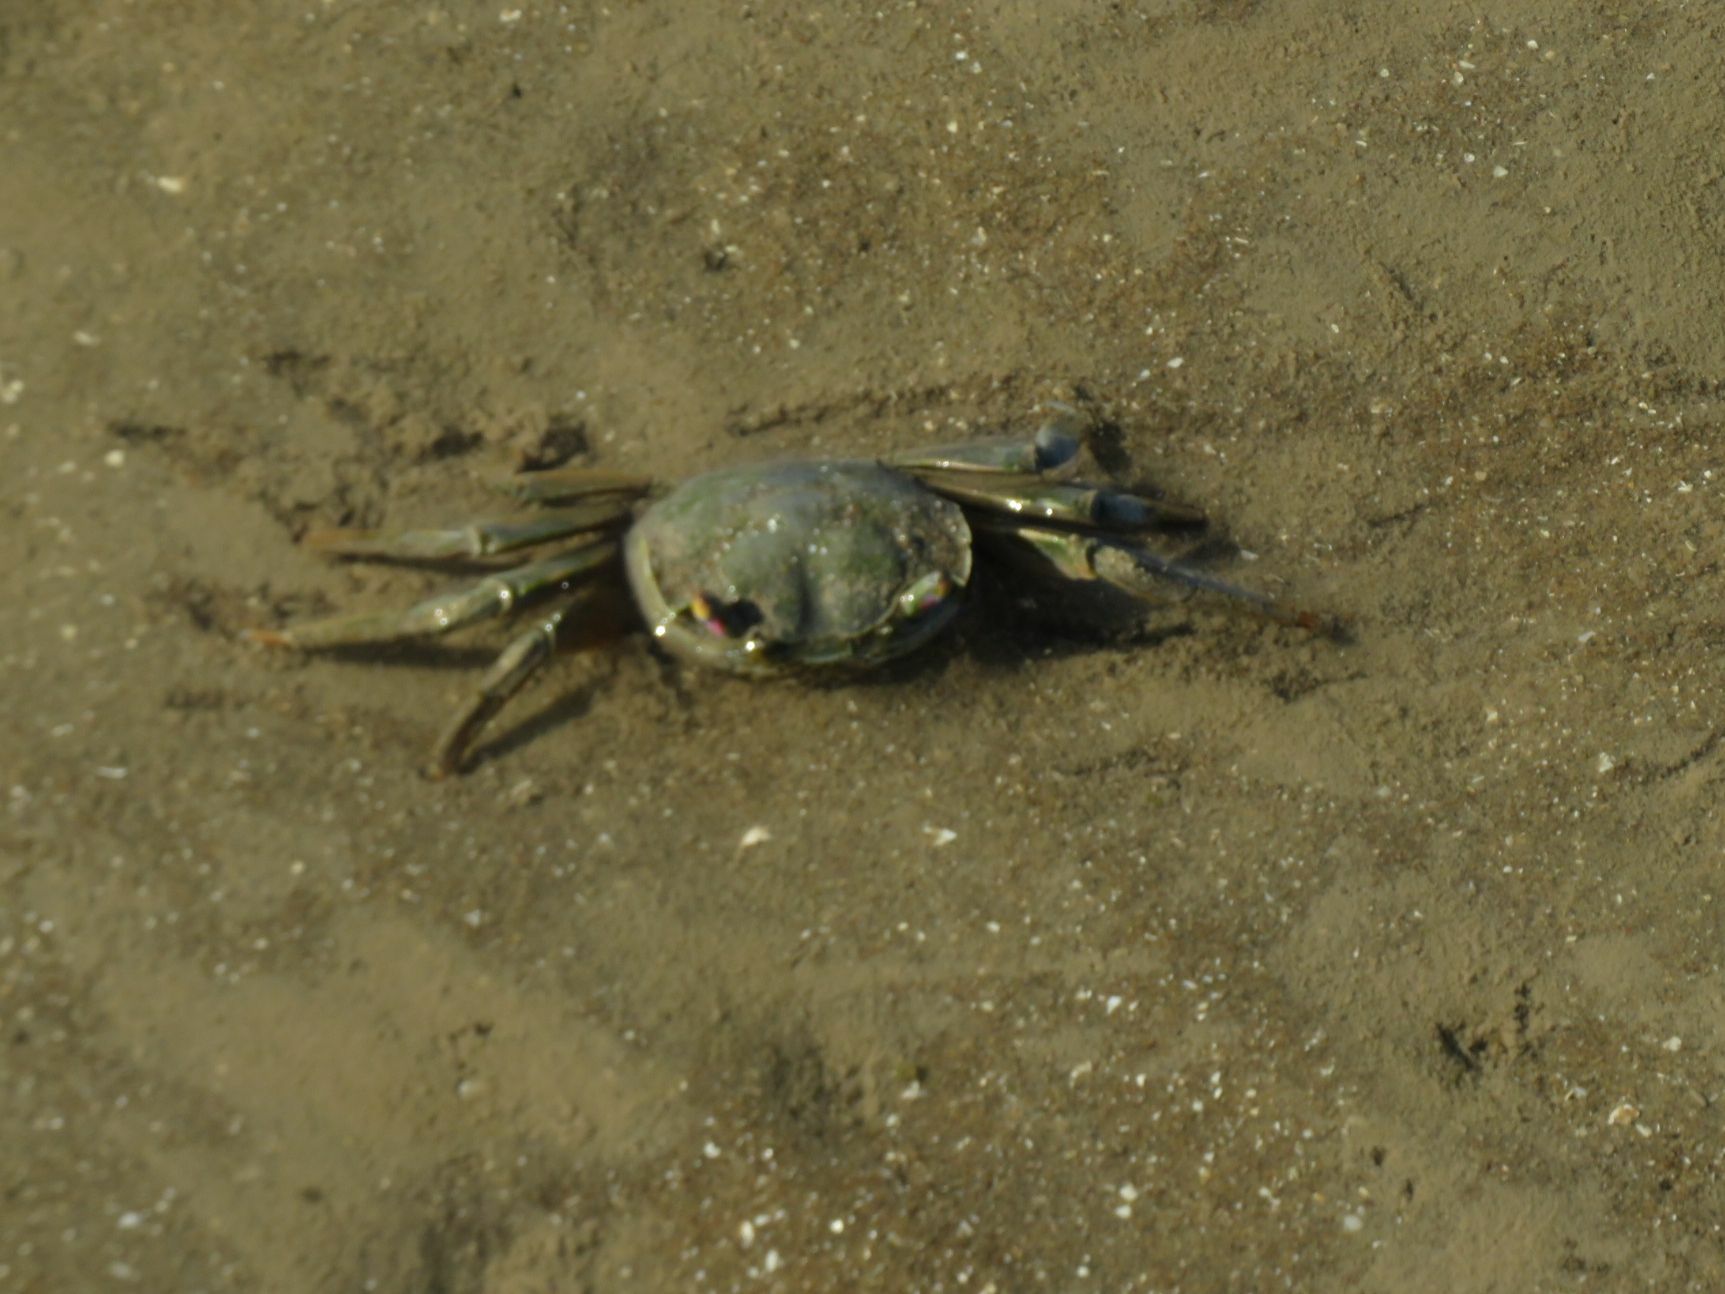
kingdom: Animalia
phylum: Arthropoda
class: Malacostraca
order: Decapoda
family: Varunidae
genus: Neohelice
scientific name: Neohelice granulata
